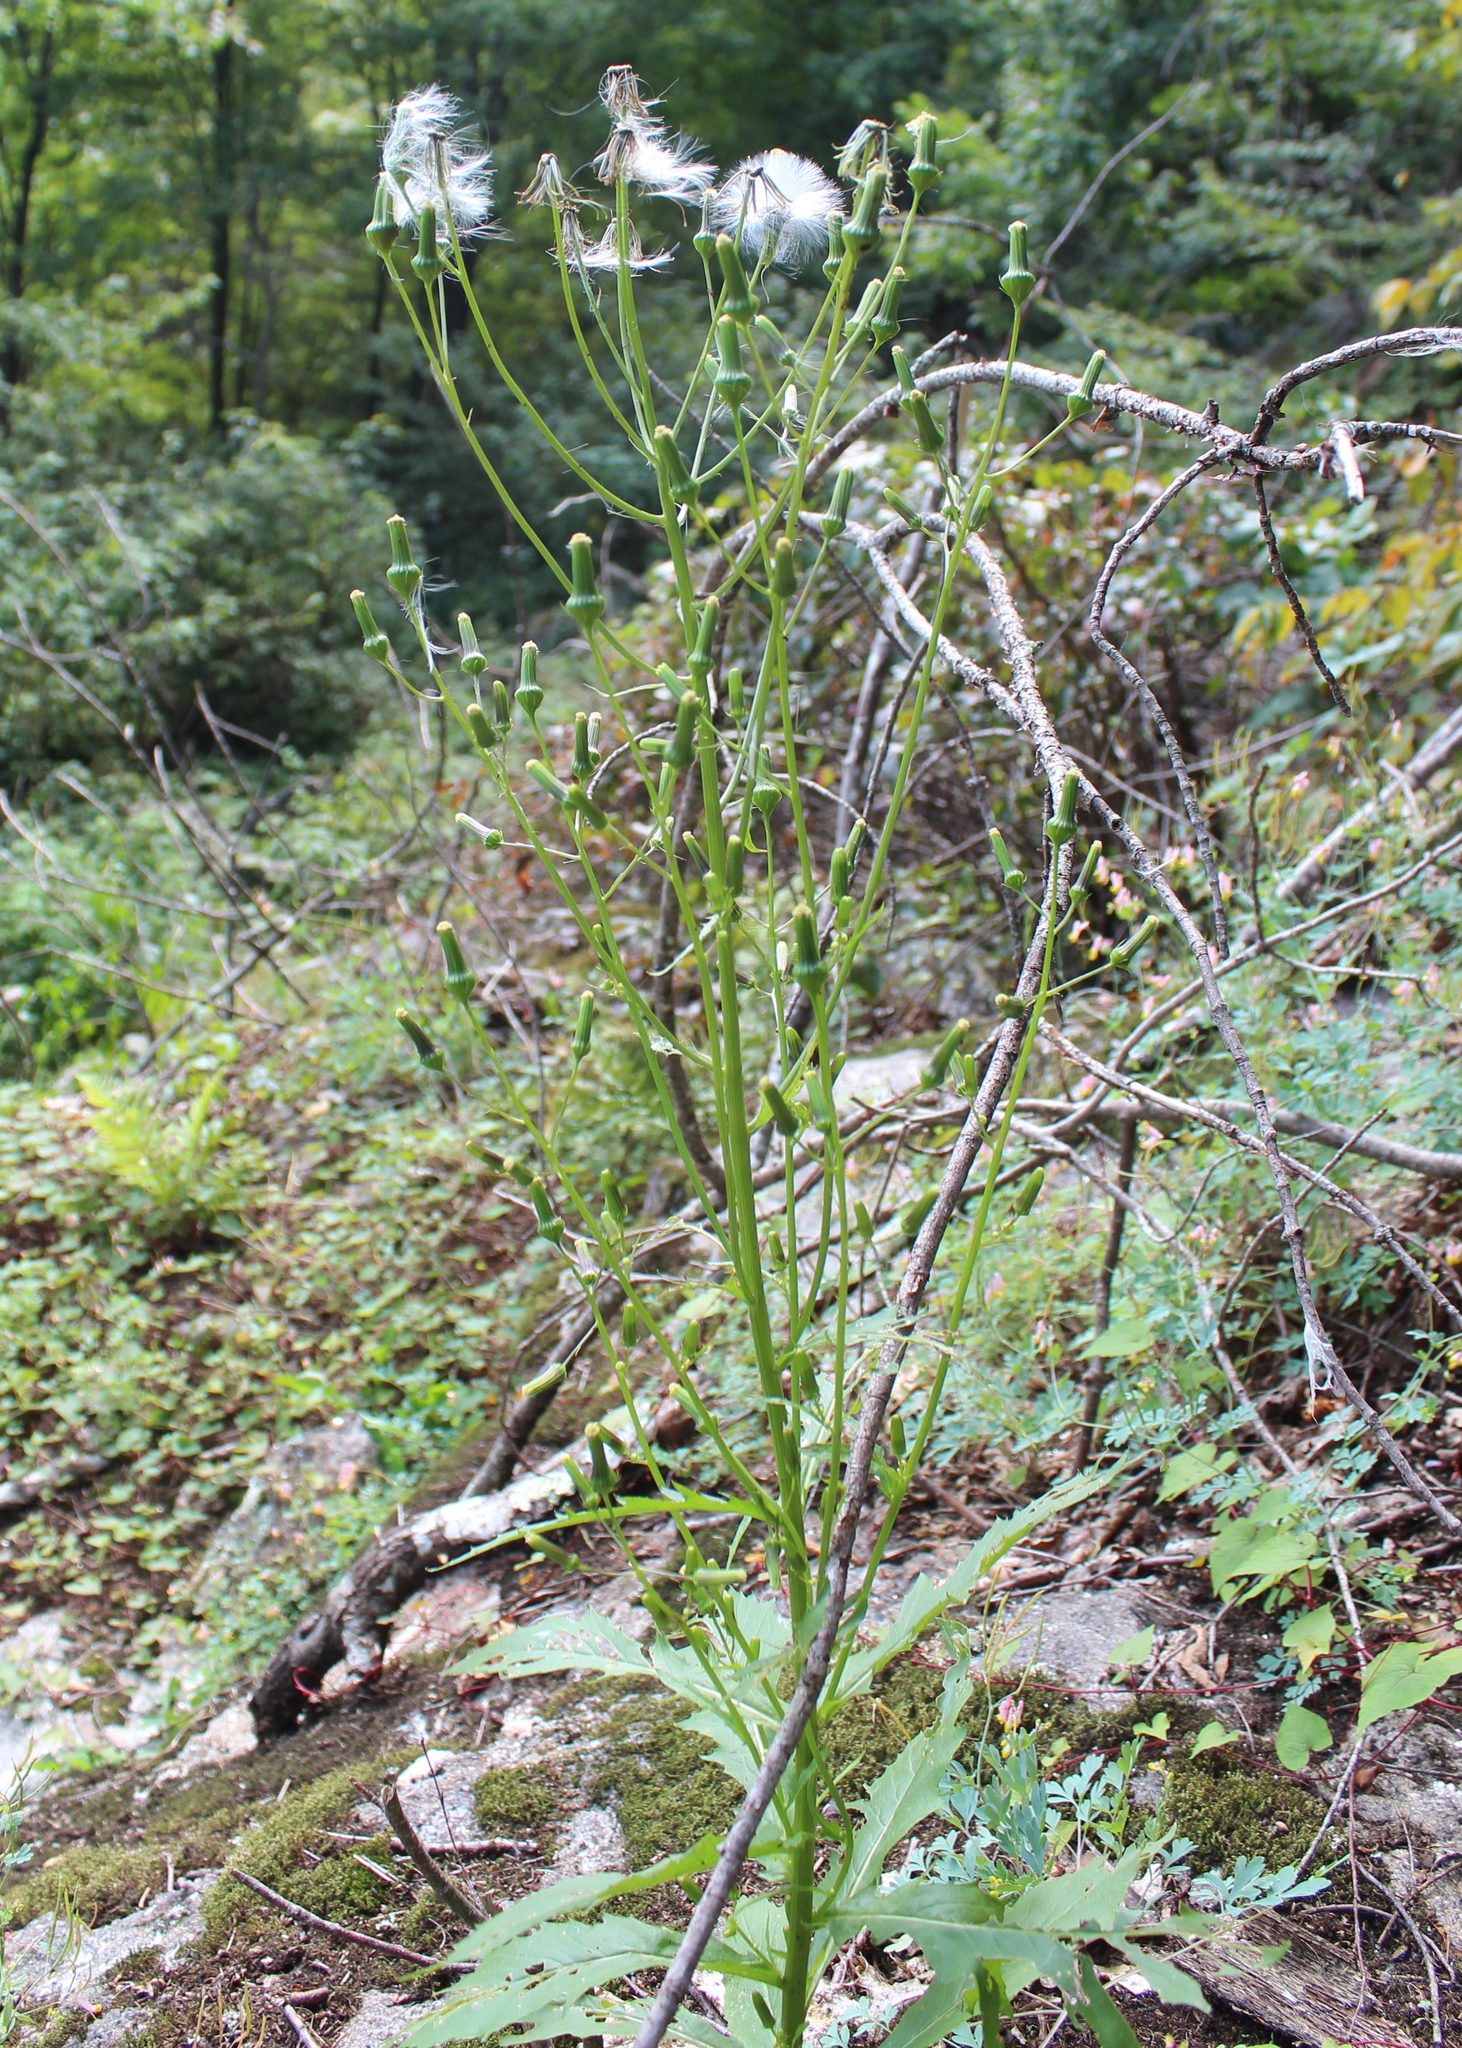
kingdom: Plantae
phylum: Tracheophyta
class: Magnoliopsida
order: Asterales
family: Asteraceae
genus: Erechtites
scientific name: Erechtites hieraciifolius
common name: American burnweed
